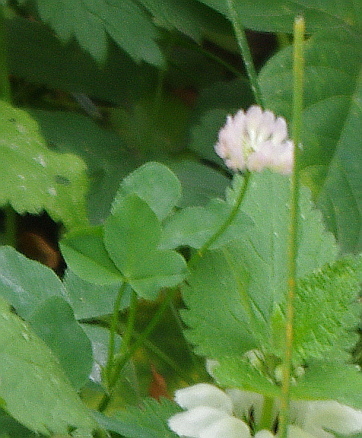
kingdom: Plantae
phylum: Tracheophyta
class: Magnoliopsida
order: Fabales
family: Fabaceae
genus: Trifolium
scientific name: Trifolium hybridum
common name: Alsike clover
